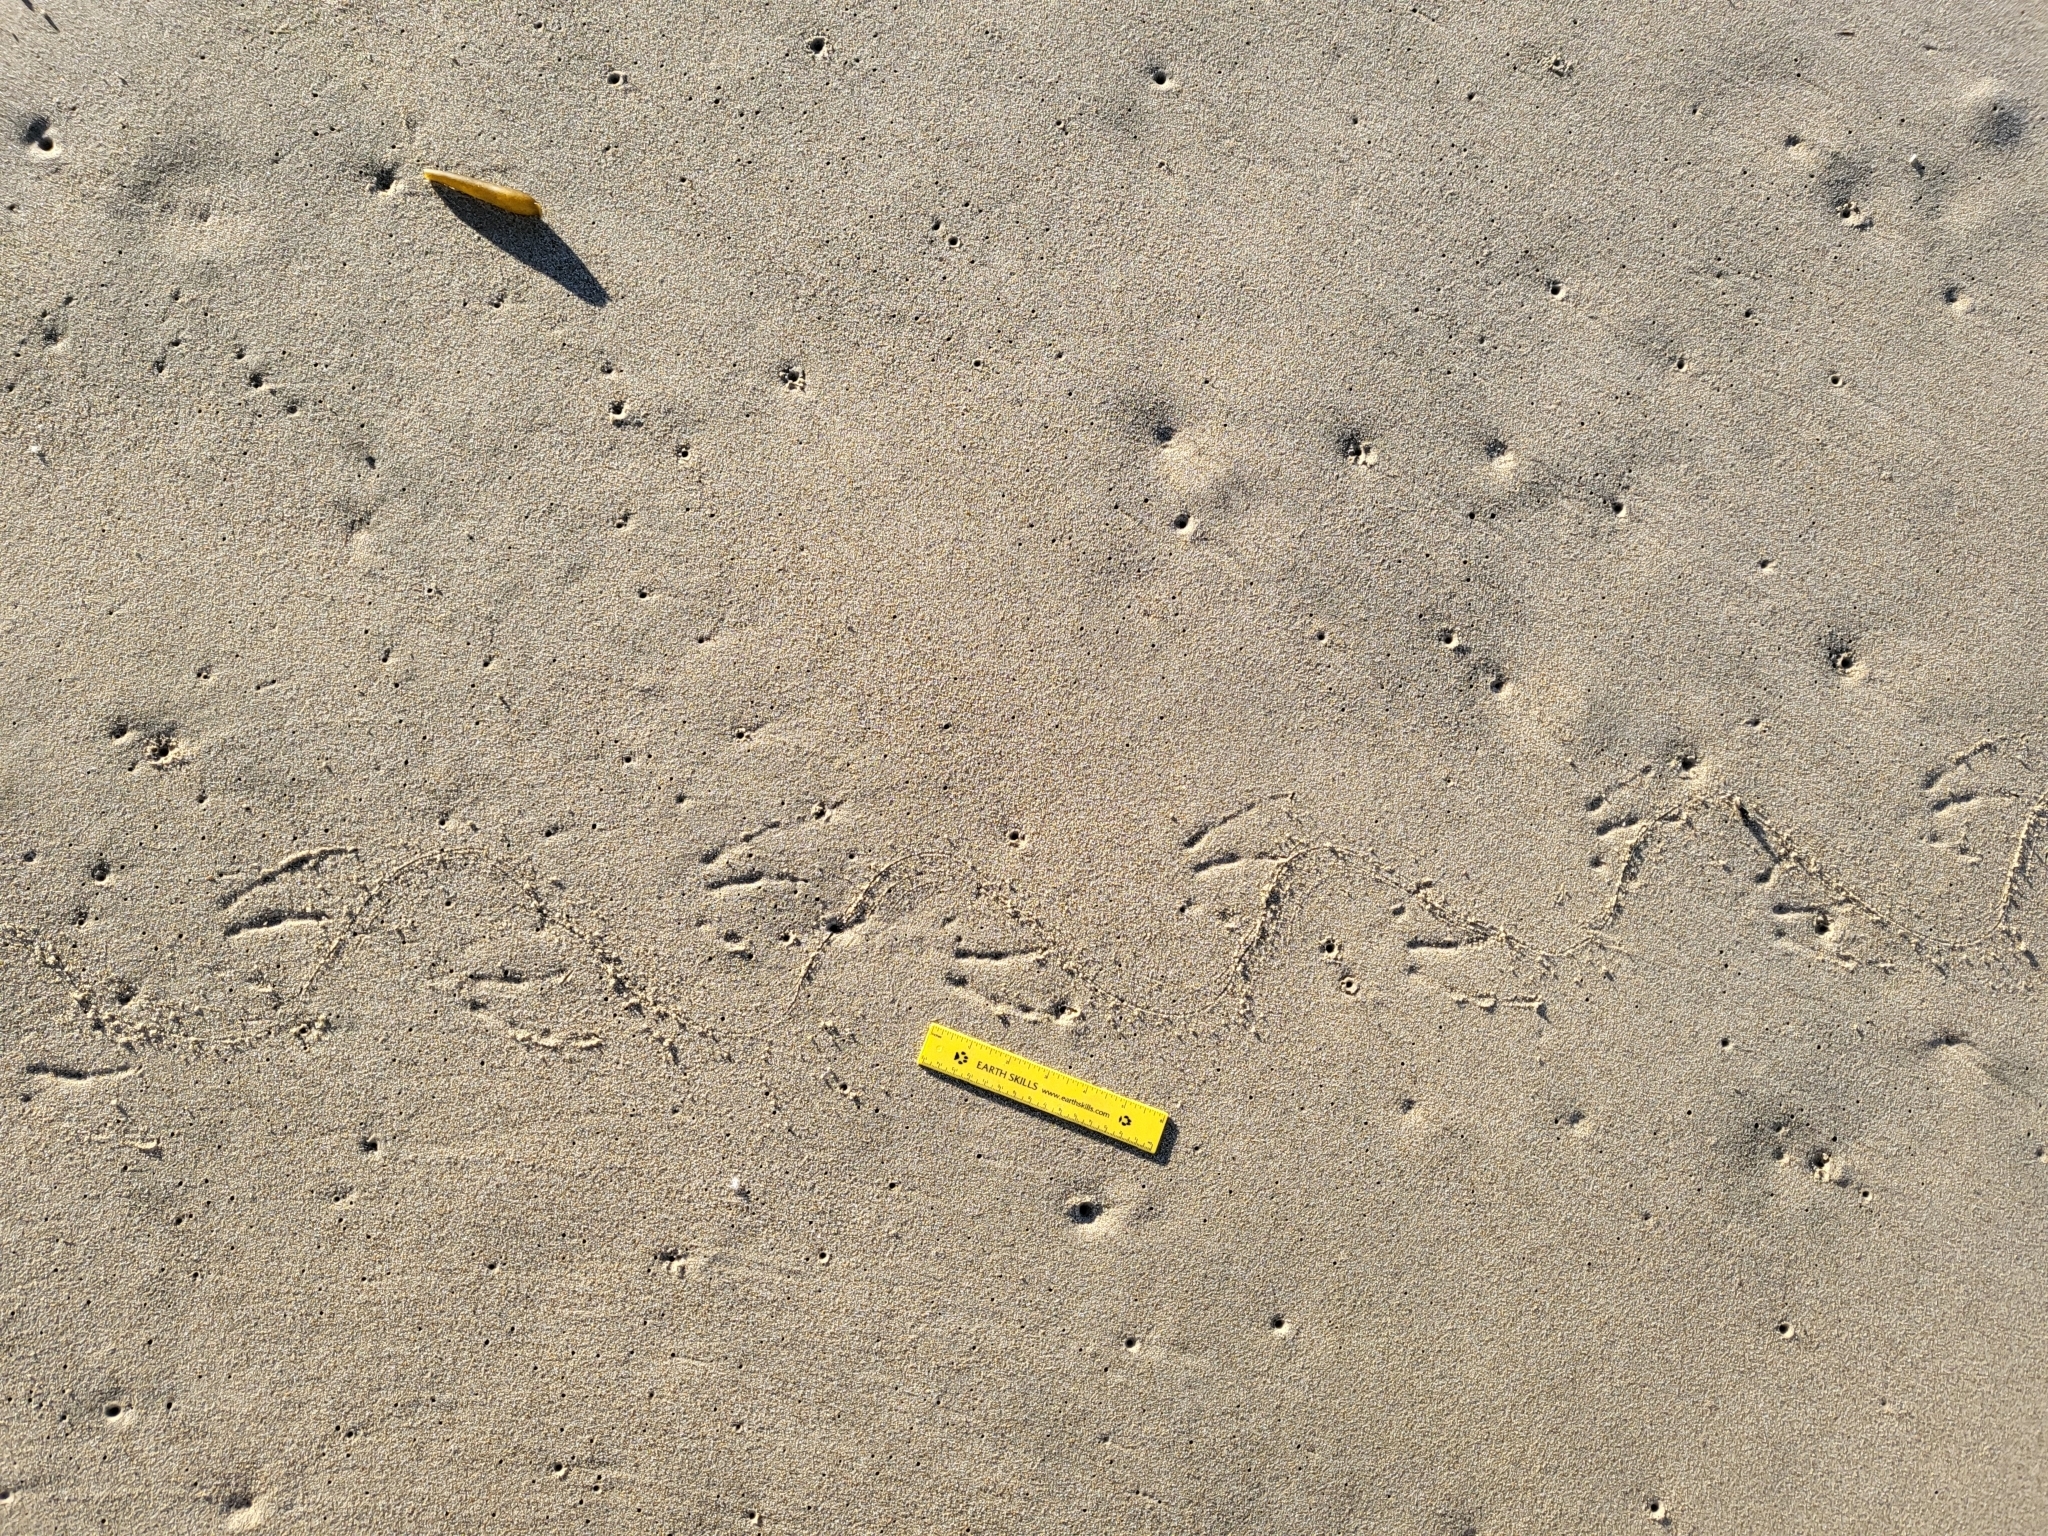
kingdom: Animalia
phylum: Chordata
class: Aves
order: Suliformes
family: Phalacrocoracidae
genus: Urile
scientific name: Urile penicillatus
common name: Brandt's cormorant
